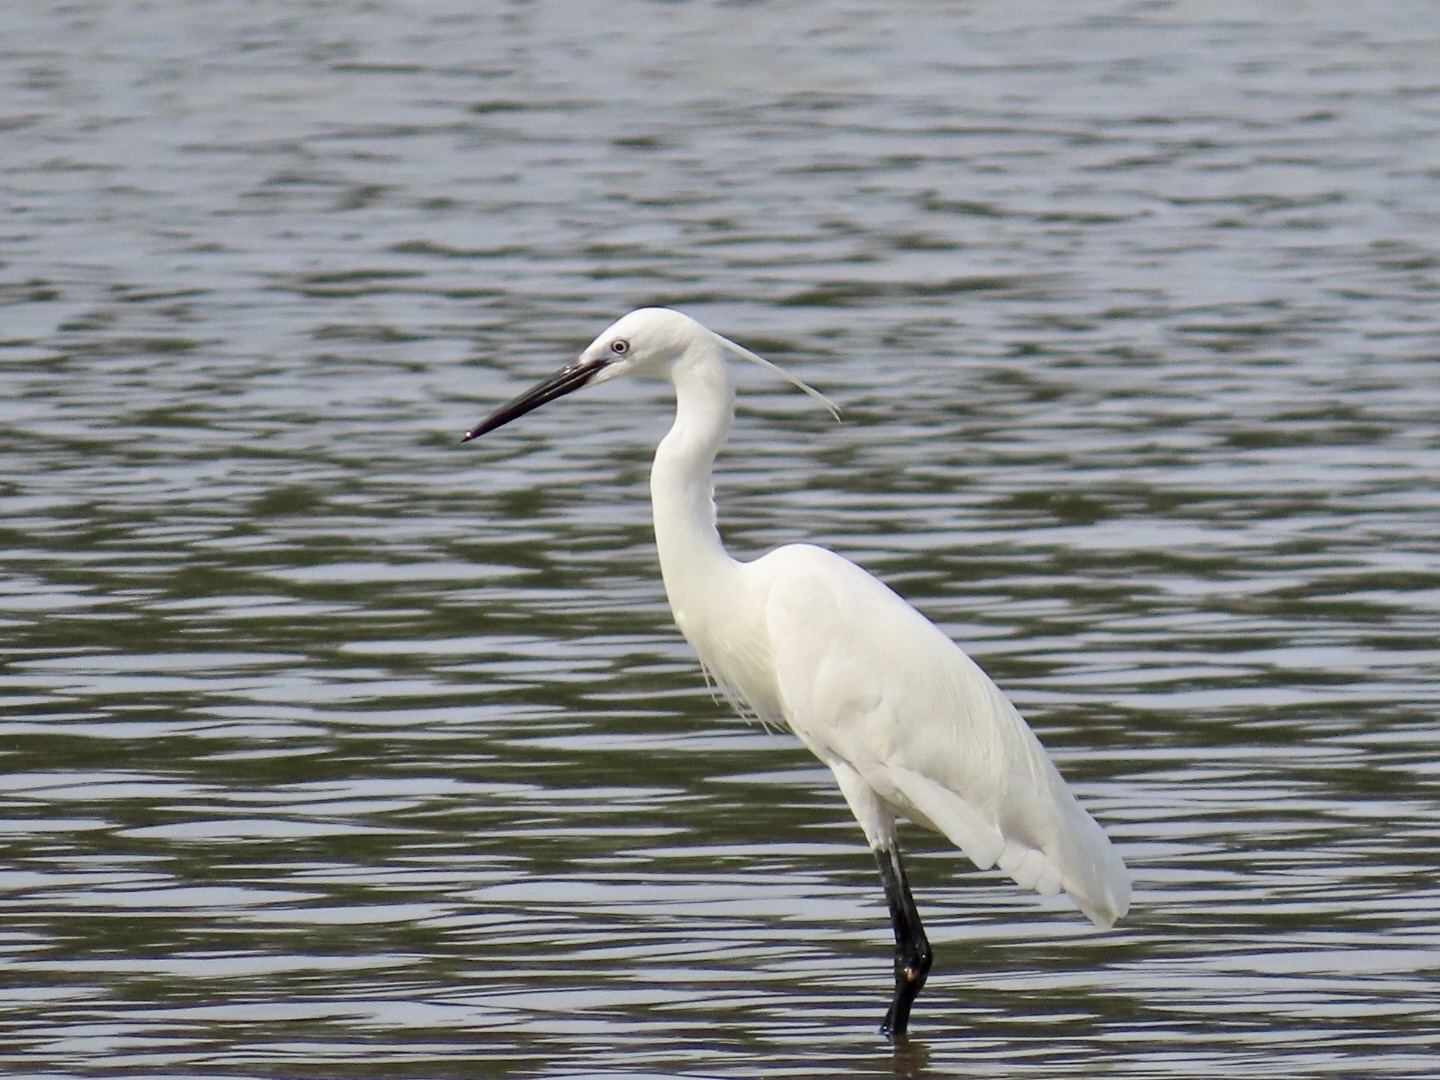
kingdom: Animalia
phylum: Chordata
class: Aves
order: Pelecaniformes
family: Ardeidae
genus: Egretta
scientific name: Egretta garzetta
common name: Little egret
